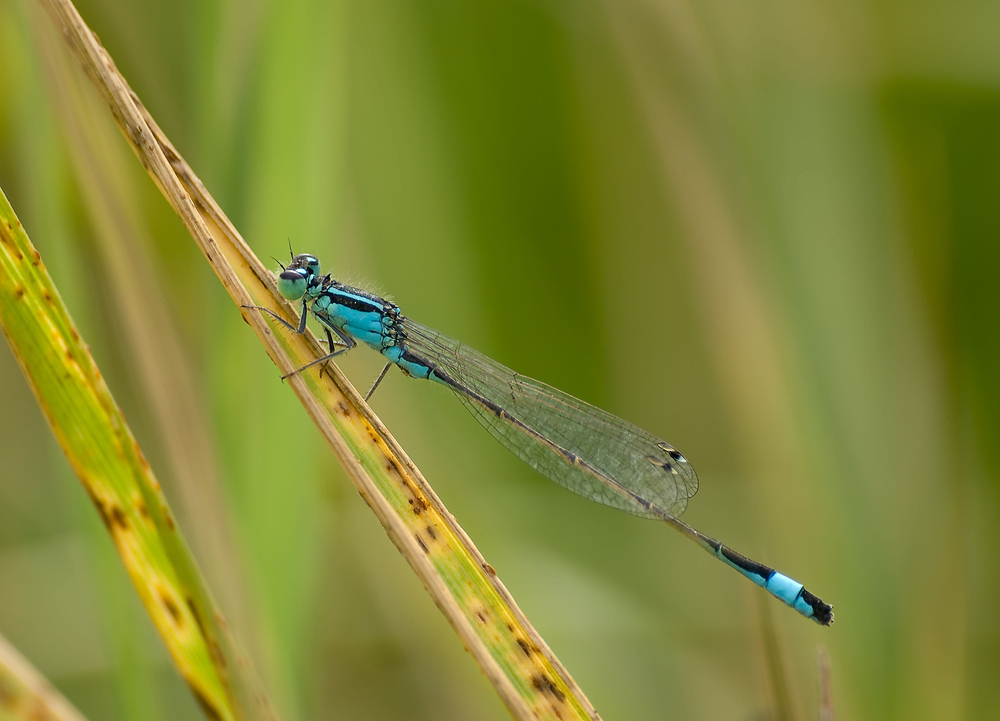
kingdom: Animalia
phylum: Arthropoda
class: Insecta
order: Odonata
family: Coenagrionidae
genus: Ischnura
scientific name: Ischnura elegans
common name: Blue-tailed damselfly
